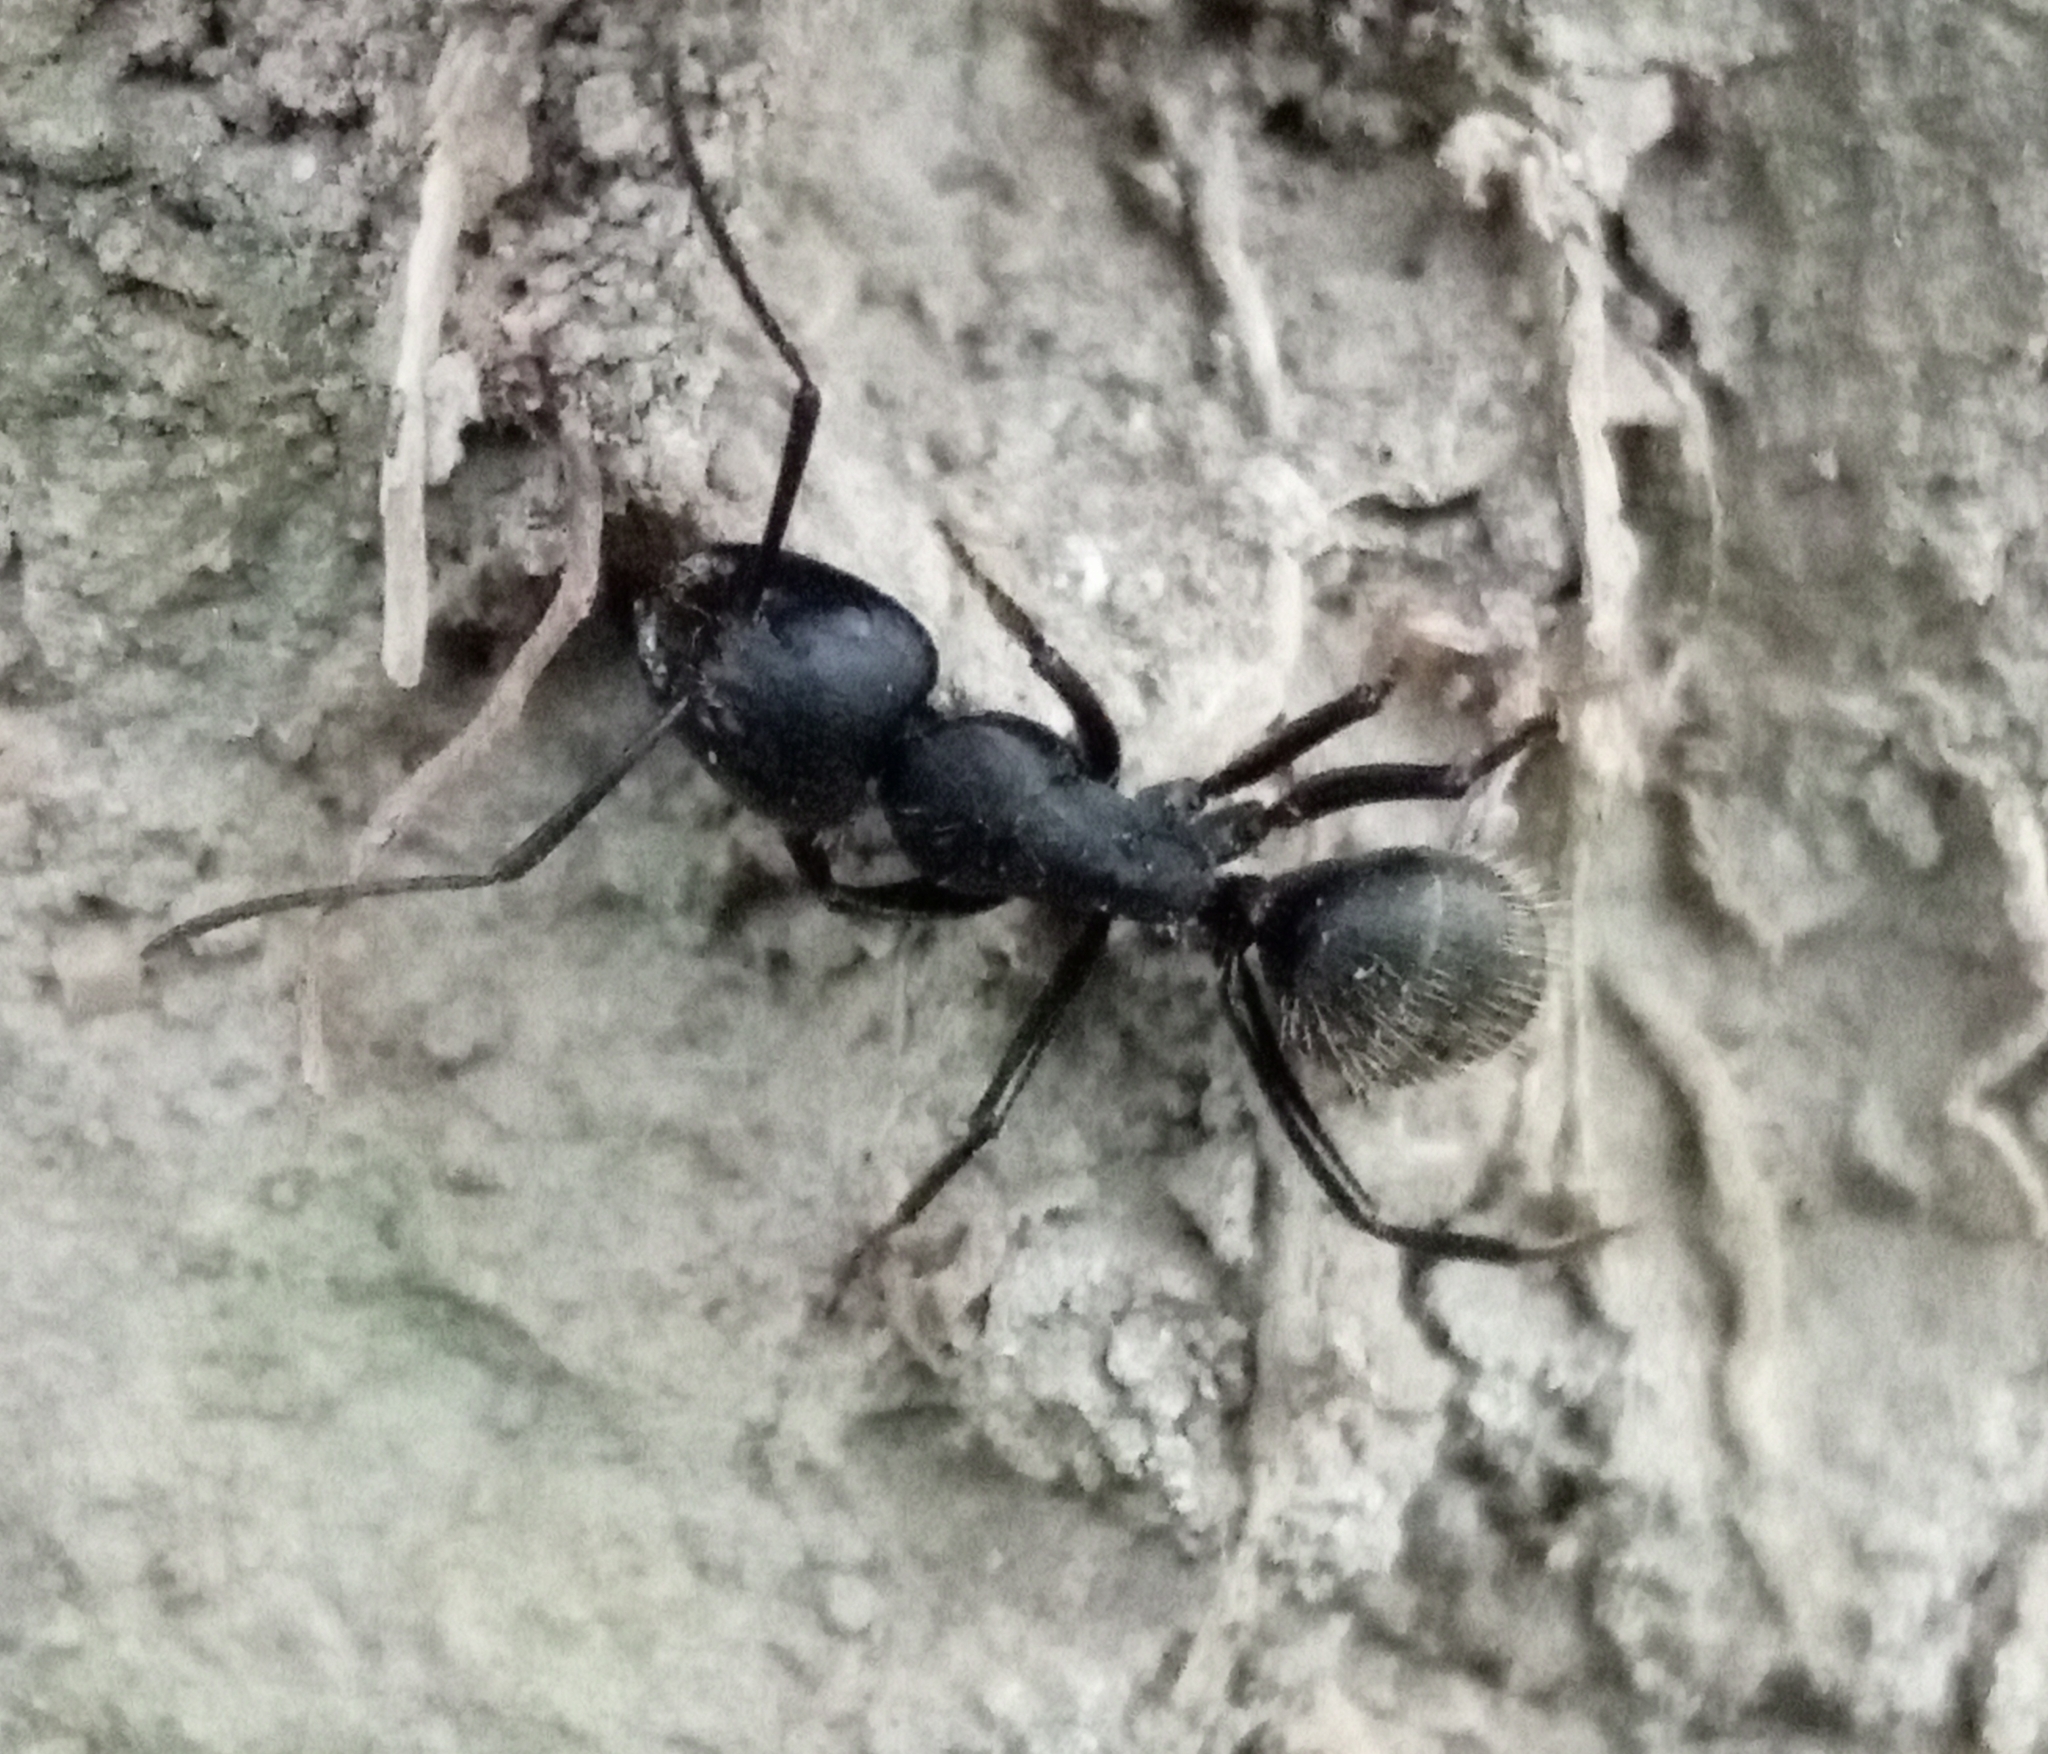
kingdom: Animalia
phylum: Arthropoda
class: Insecta
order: Hymenoptera
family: Formicidae
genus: Camponotus
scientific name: Camponotus vagus
